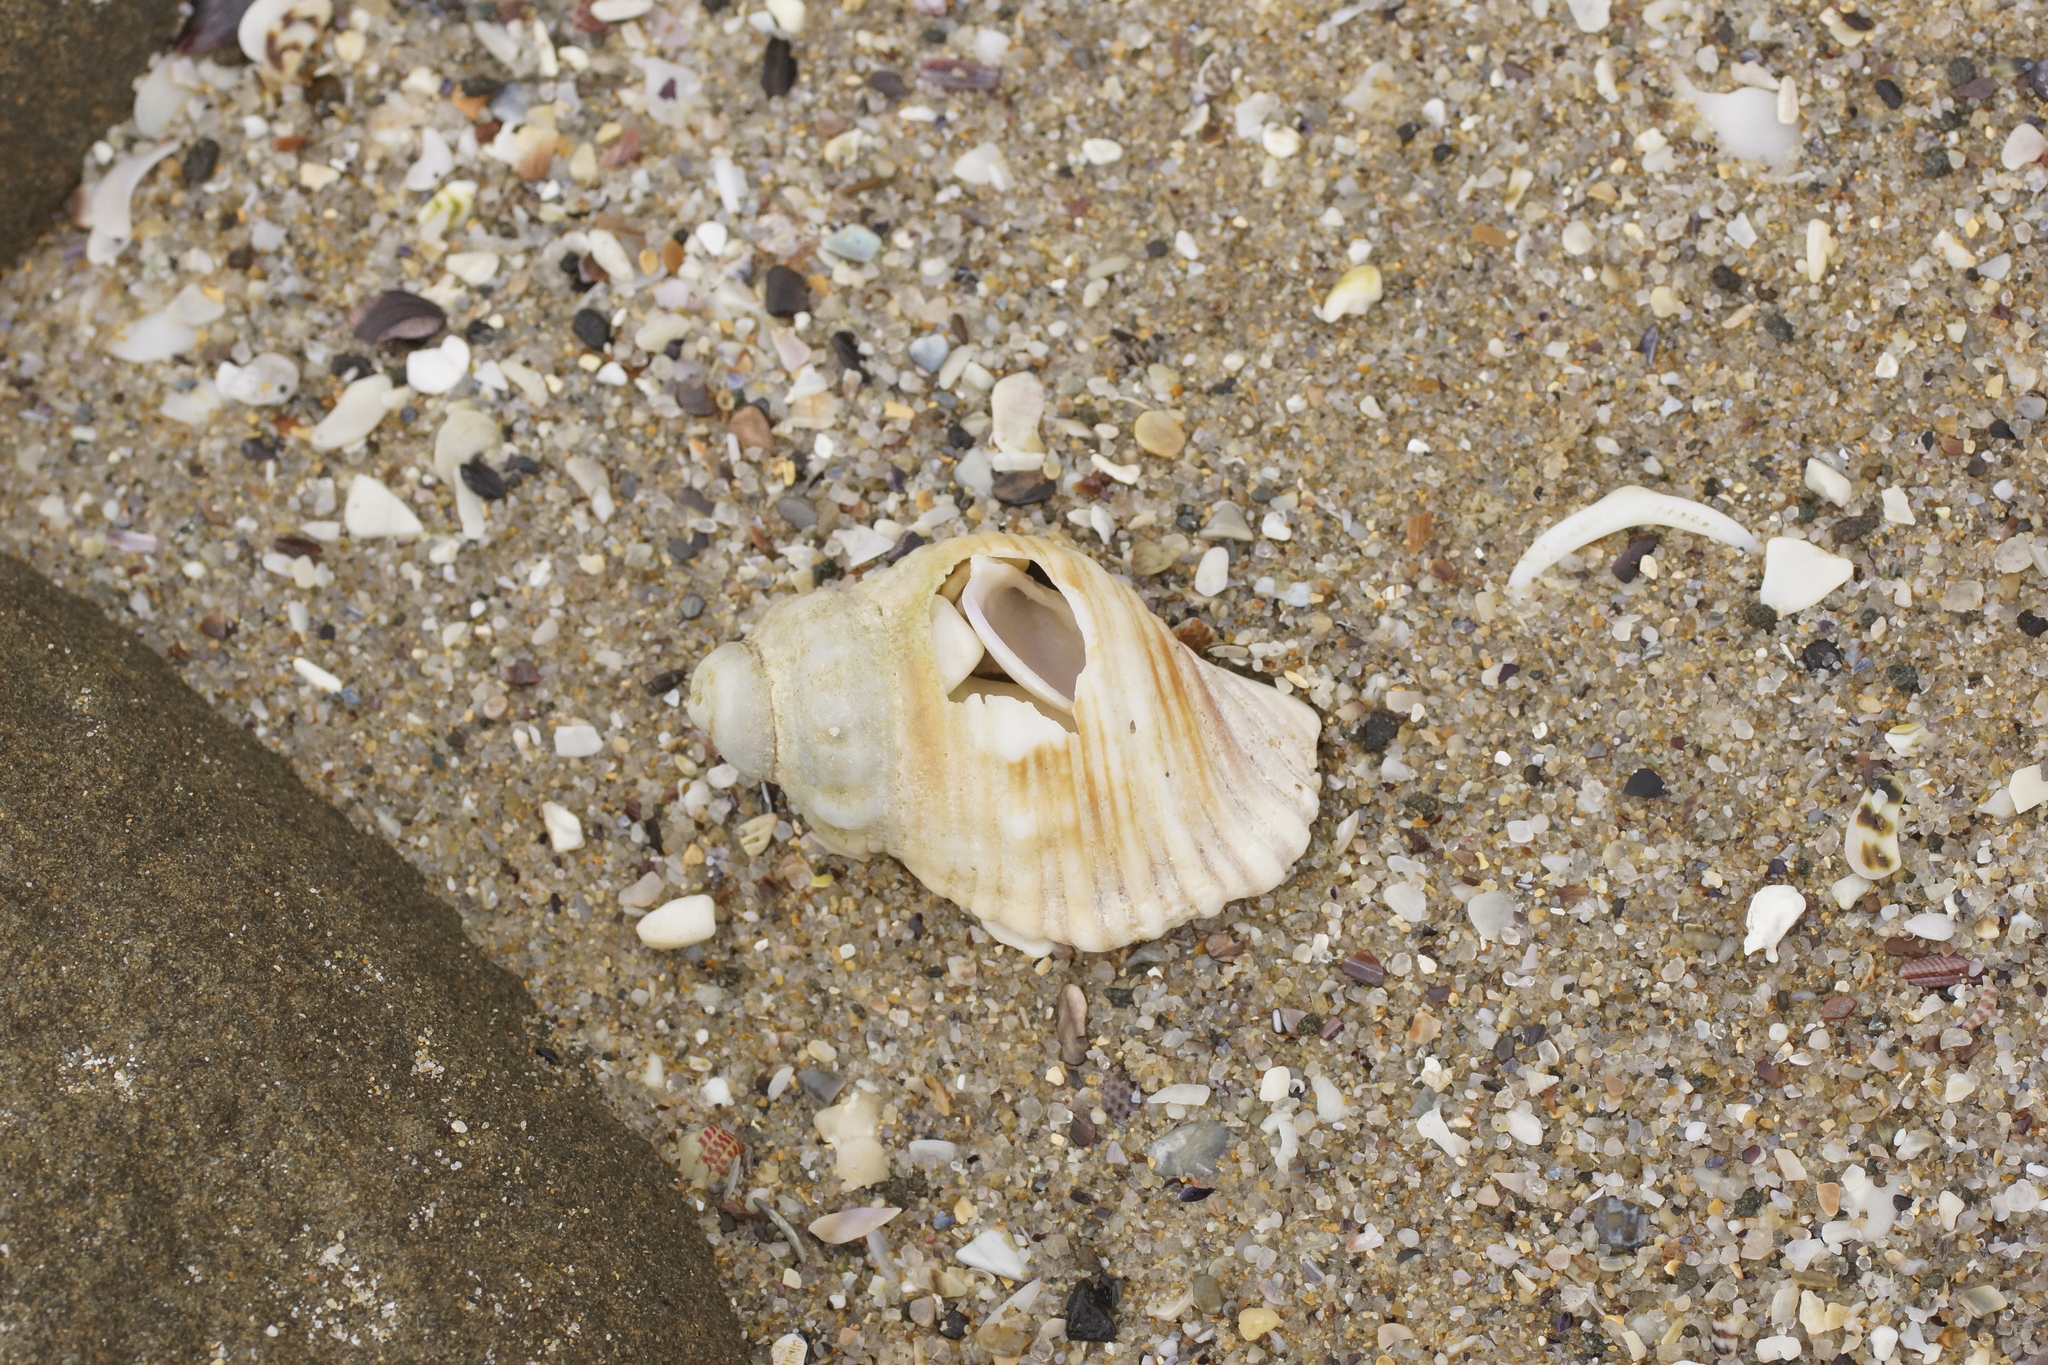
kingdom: Animalia
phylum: Mollusca
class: Gastropoda
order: Littorinimorpha
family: Cymatiidae
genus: Cabestana
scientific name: Cabestana spengleri
